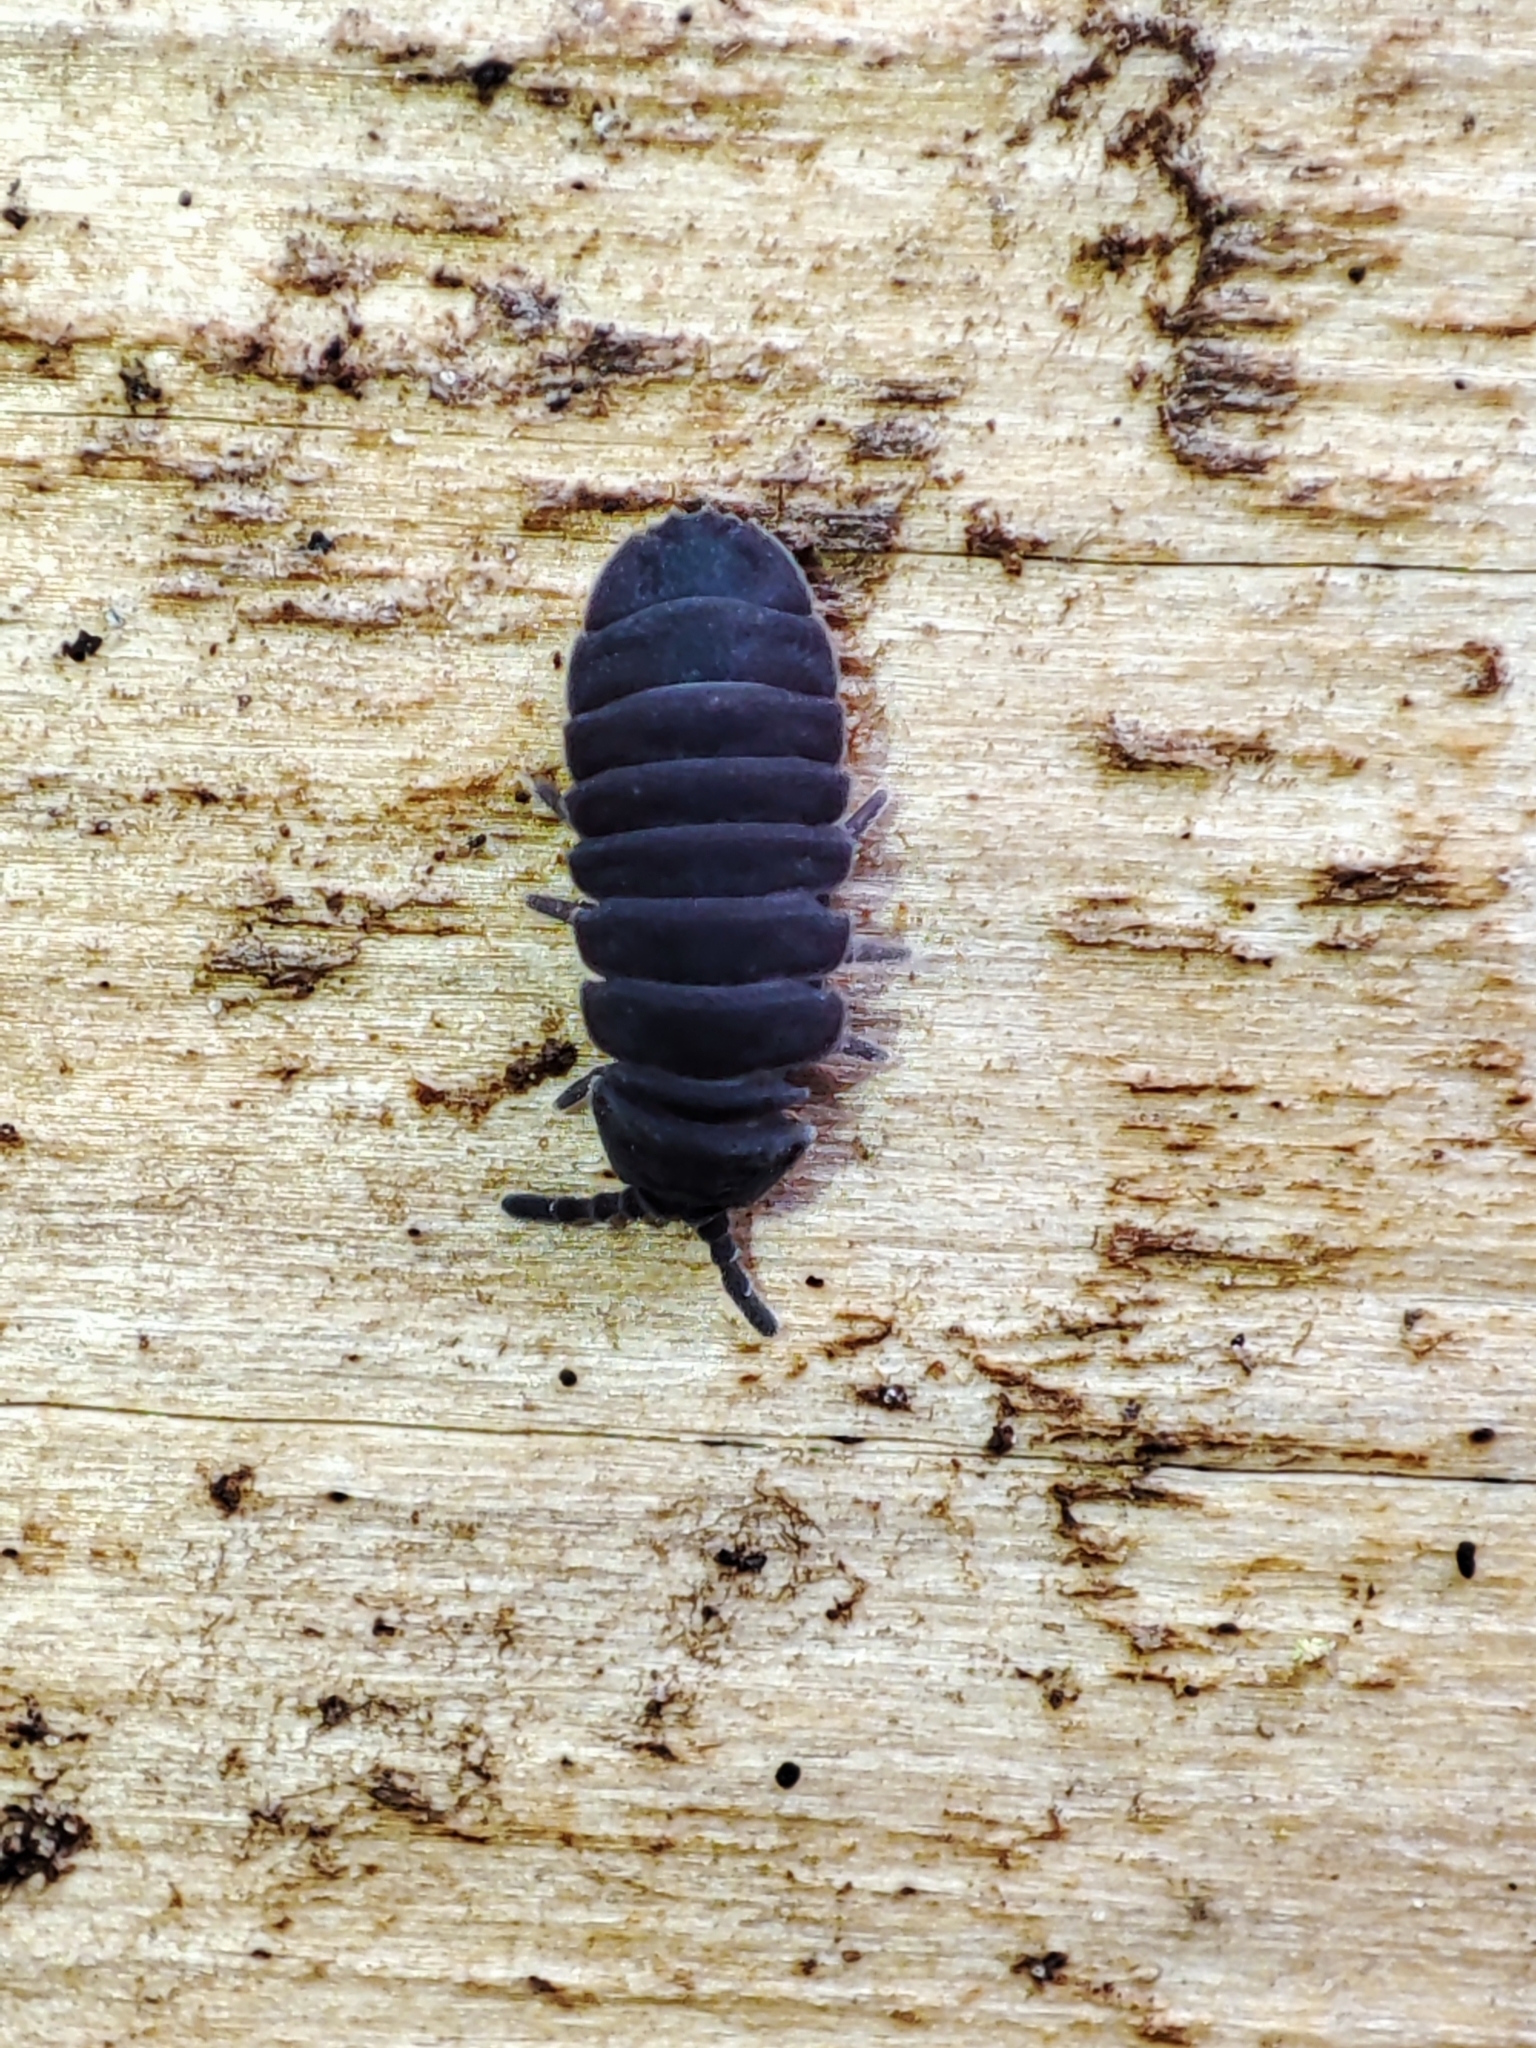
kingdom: Animalia
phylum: Arthropoda
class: Collembola
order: Poduromorpha
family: Onychiuridae
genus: Tetrodontophora
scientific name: Tetrodontophora bielanensis
